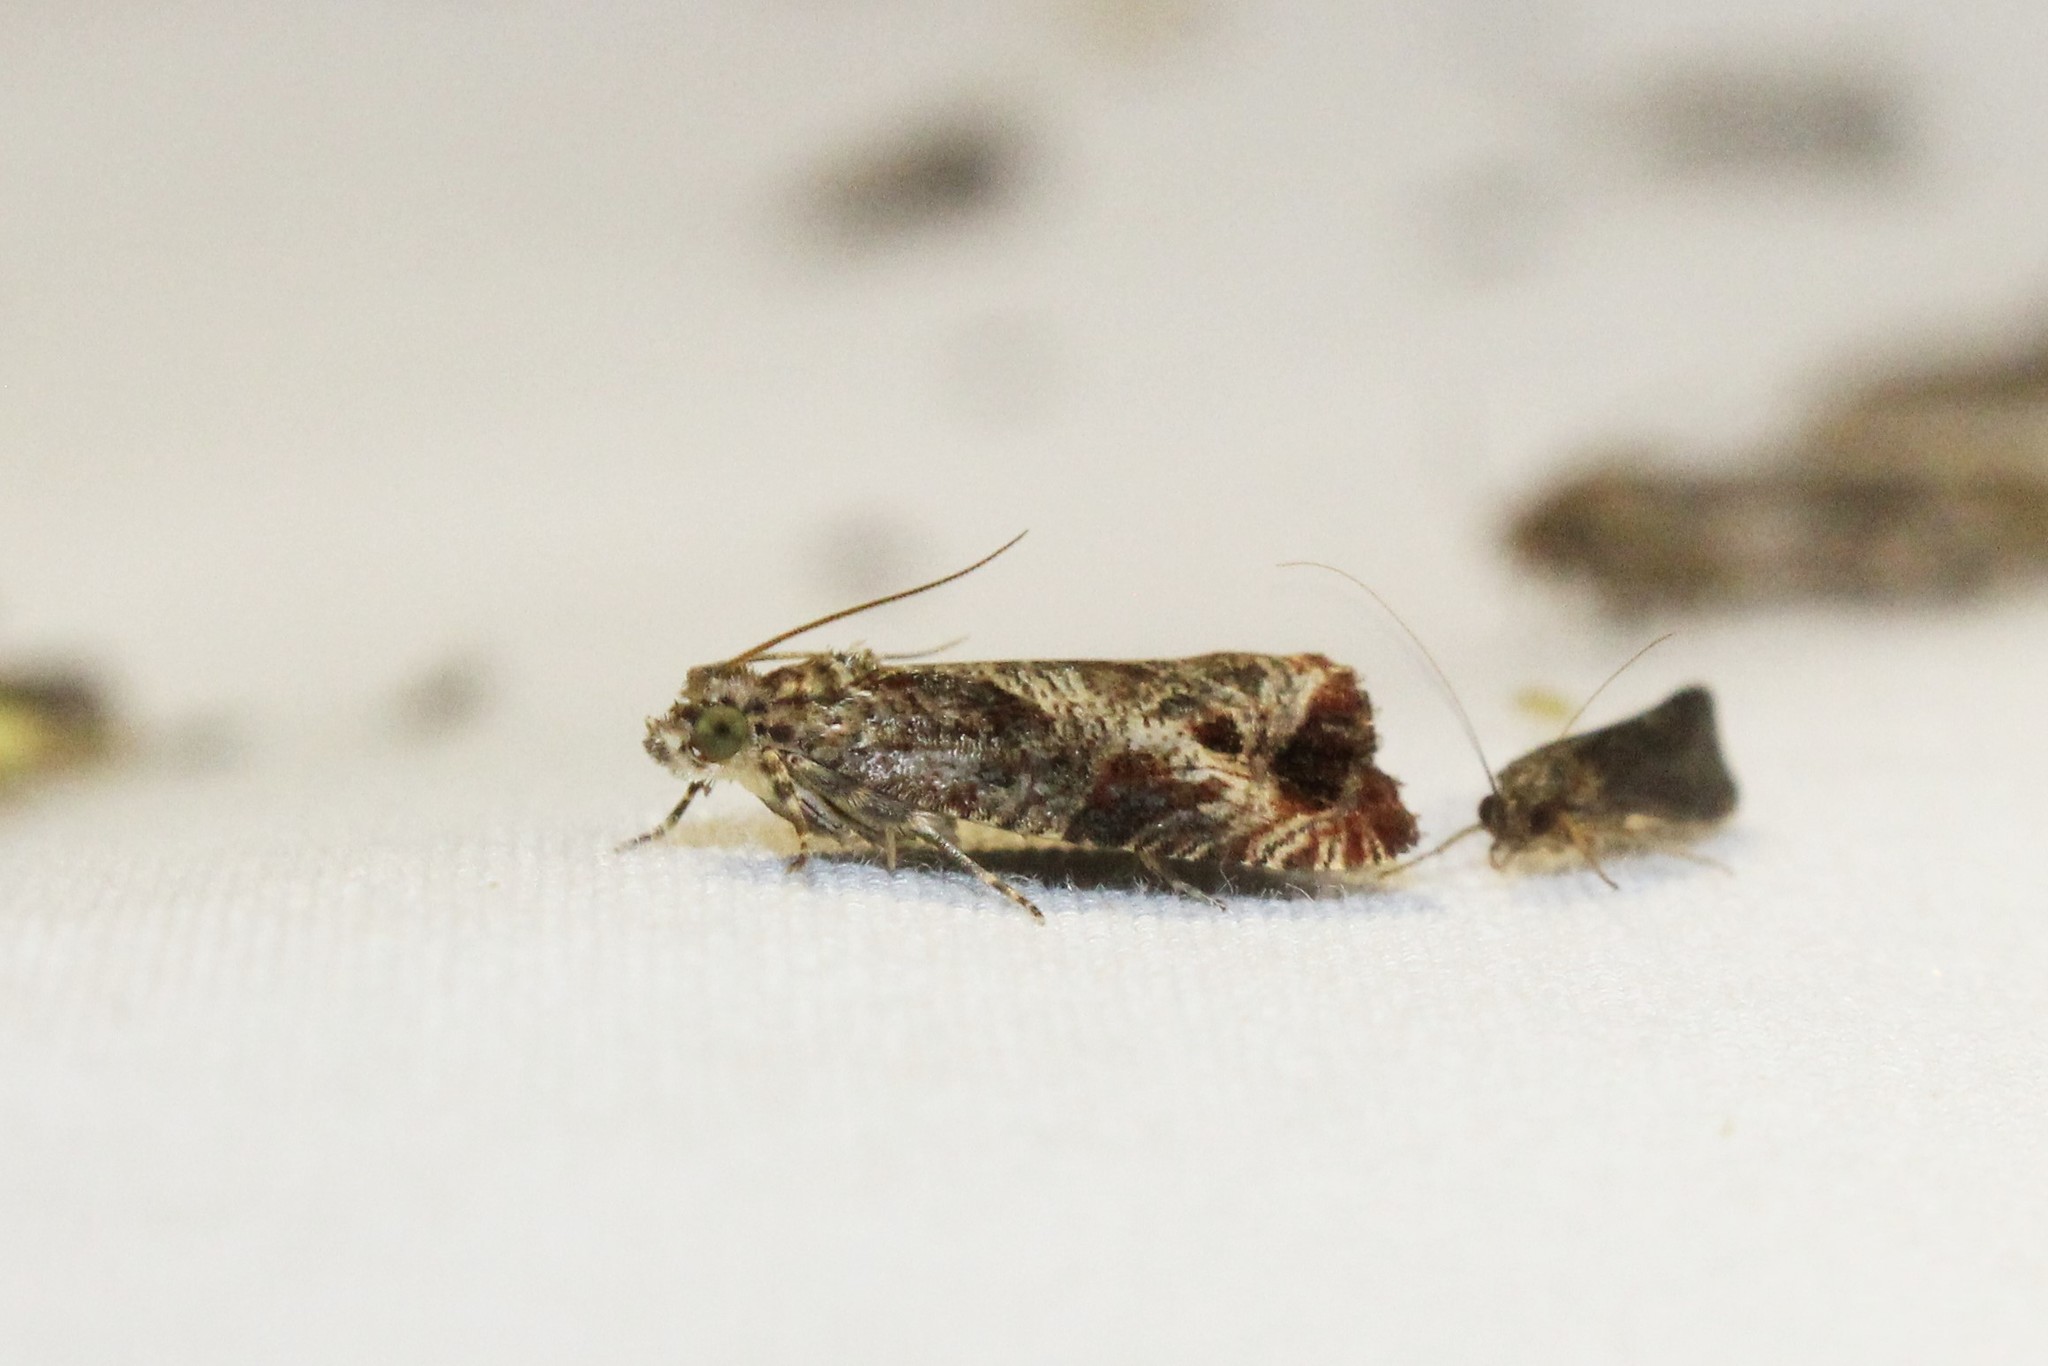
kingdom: Animalia
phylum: Arthropoda
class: Insecta
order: Lepidoptera
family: Tortricidae
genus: Olethreutes
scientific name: Olethreutes merrickanum
